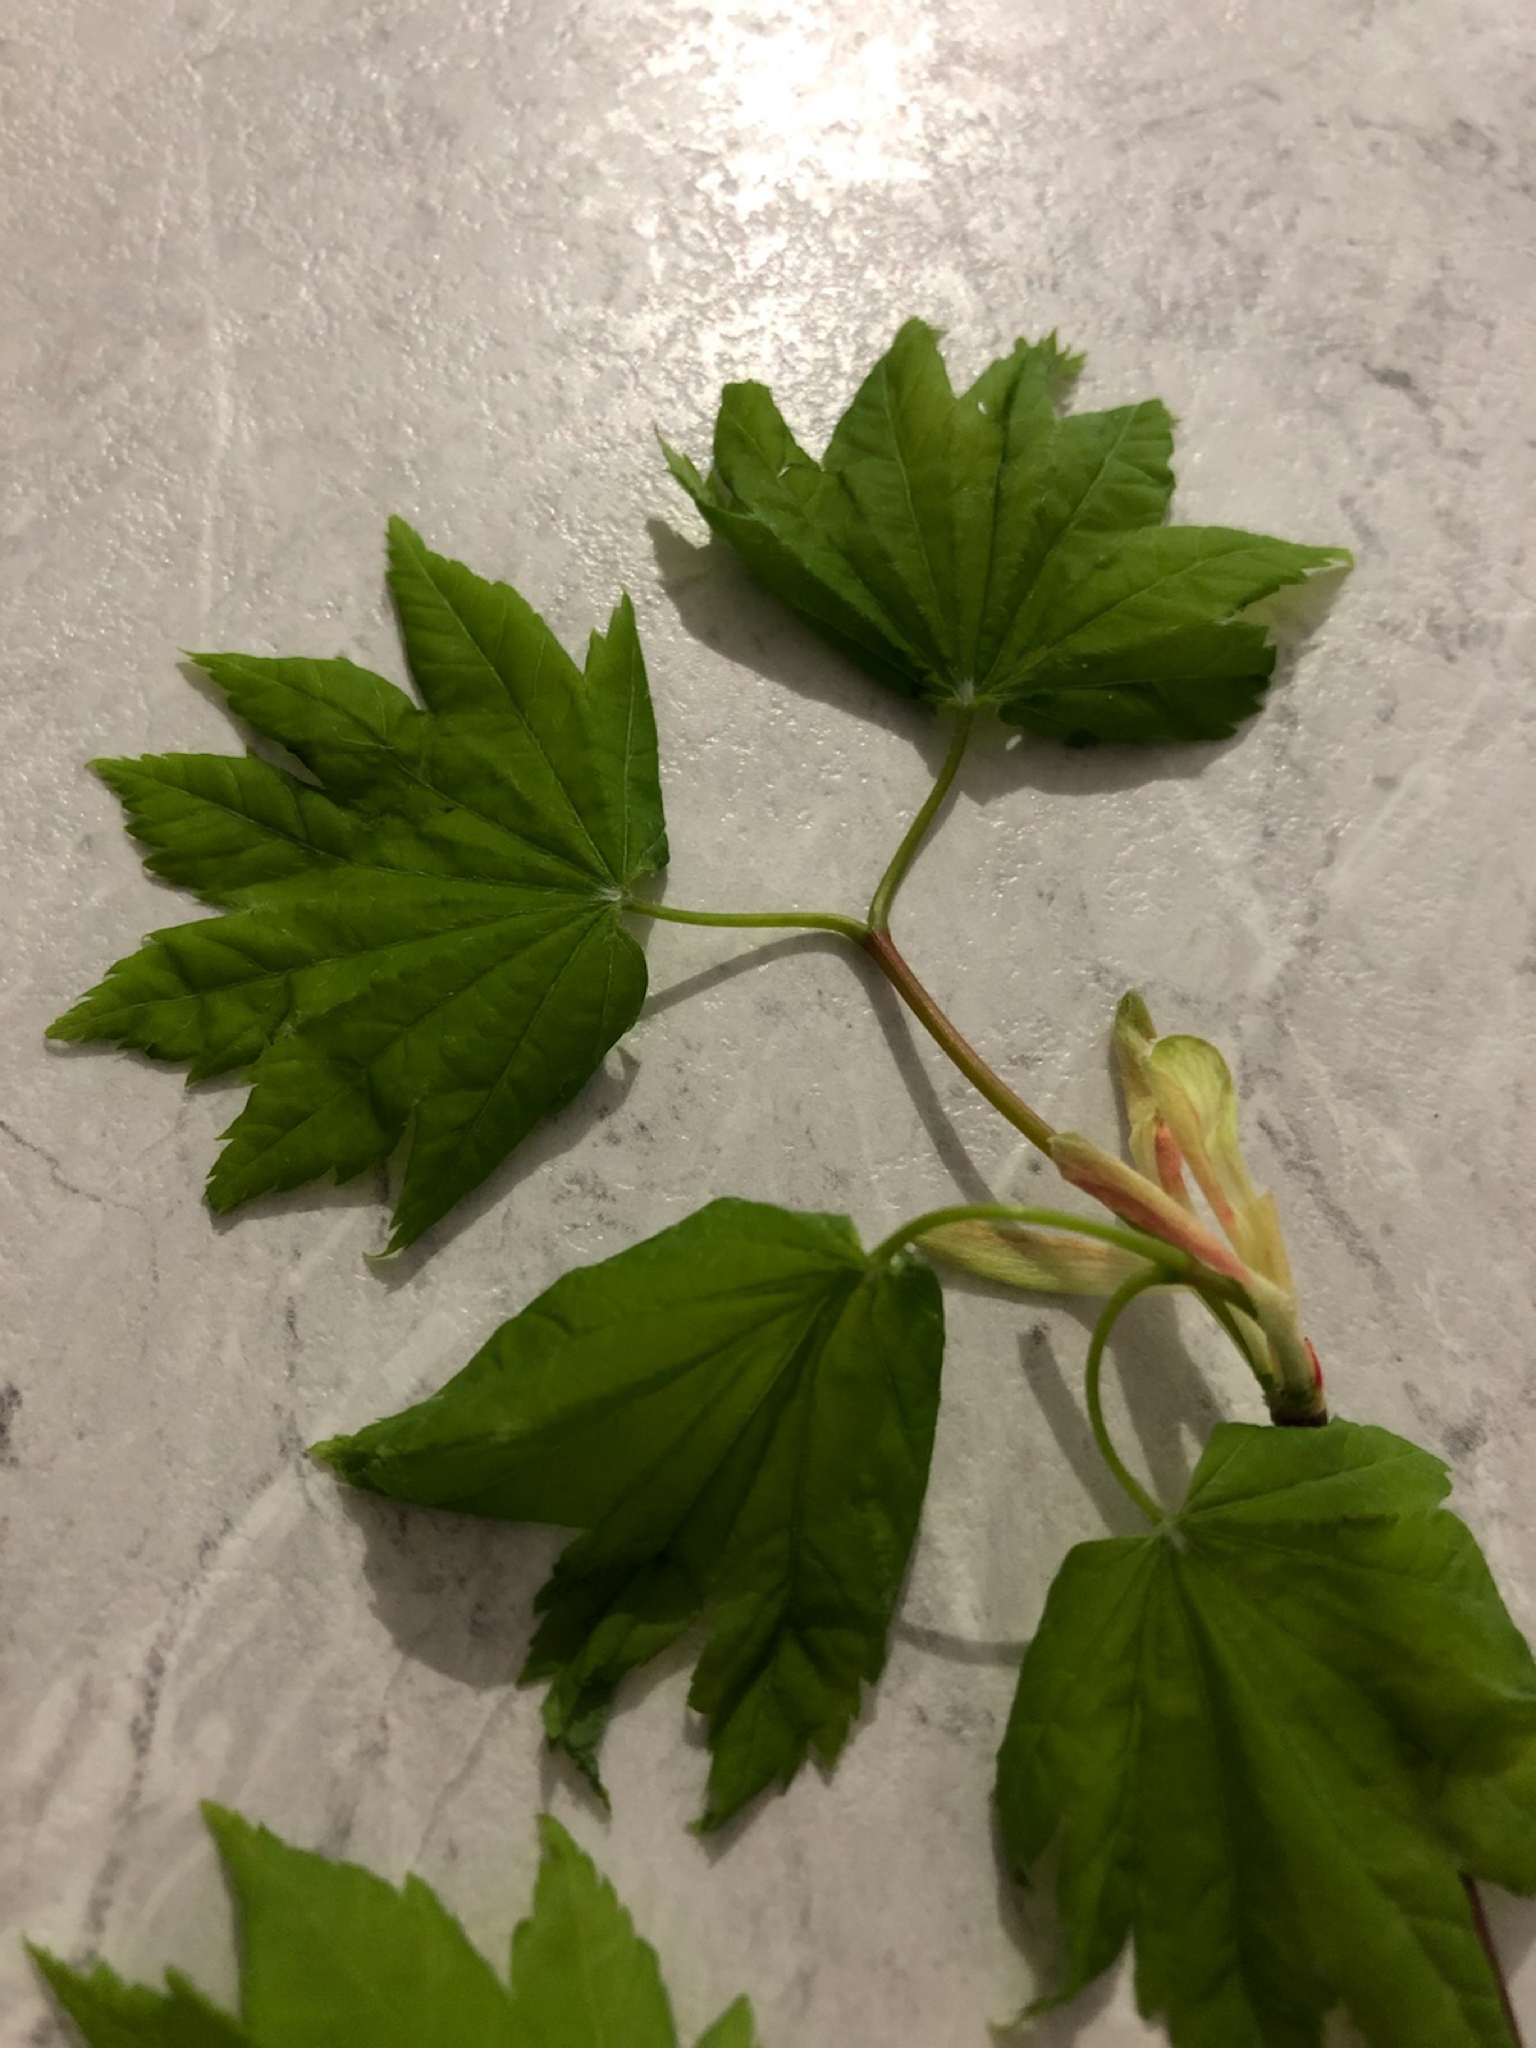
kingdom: Plantae
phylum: Tracheophyta
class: Magnoliopsida
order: Sapindales
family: Sapindaceae
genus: Acer
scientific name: Acer circinatum
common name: Vine maple
